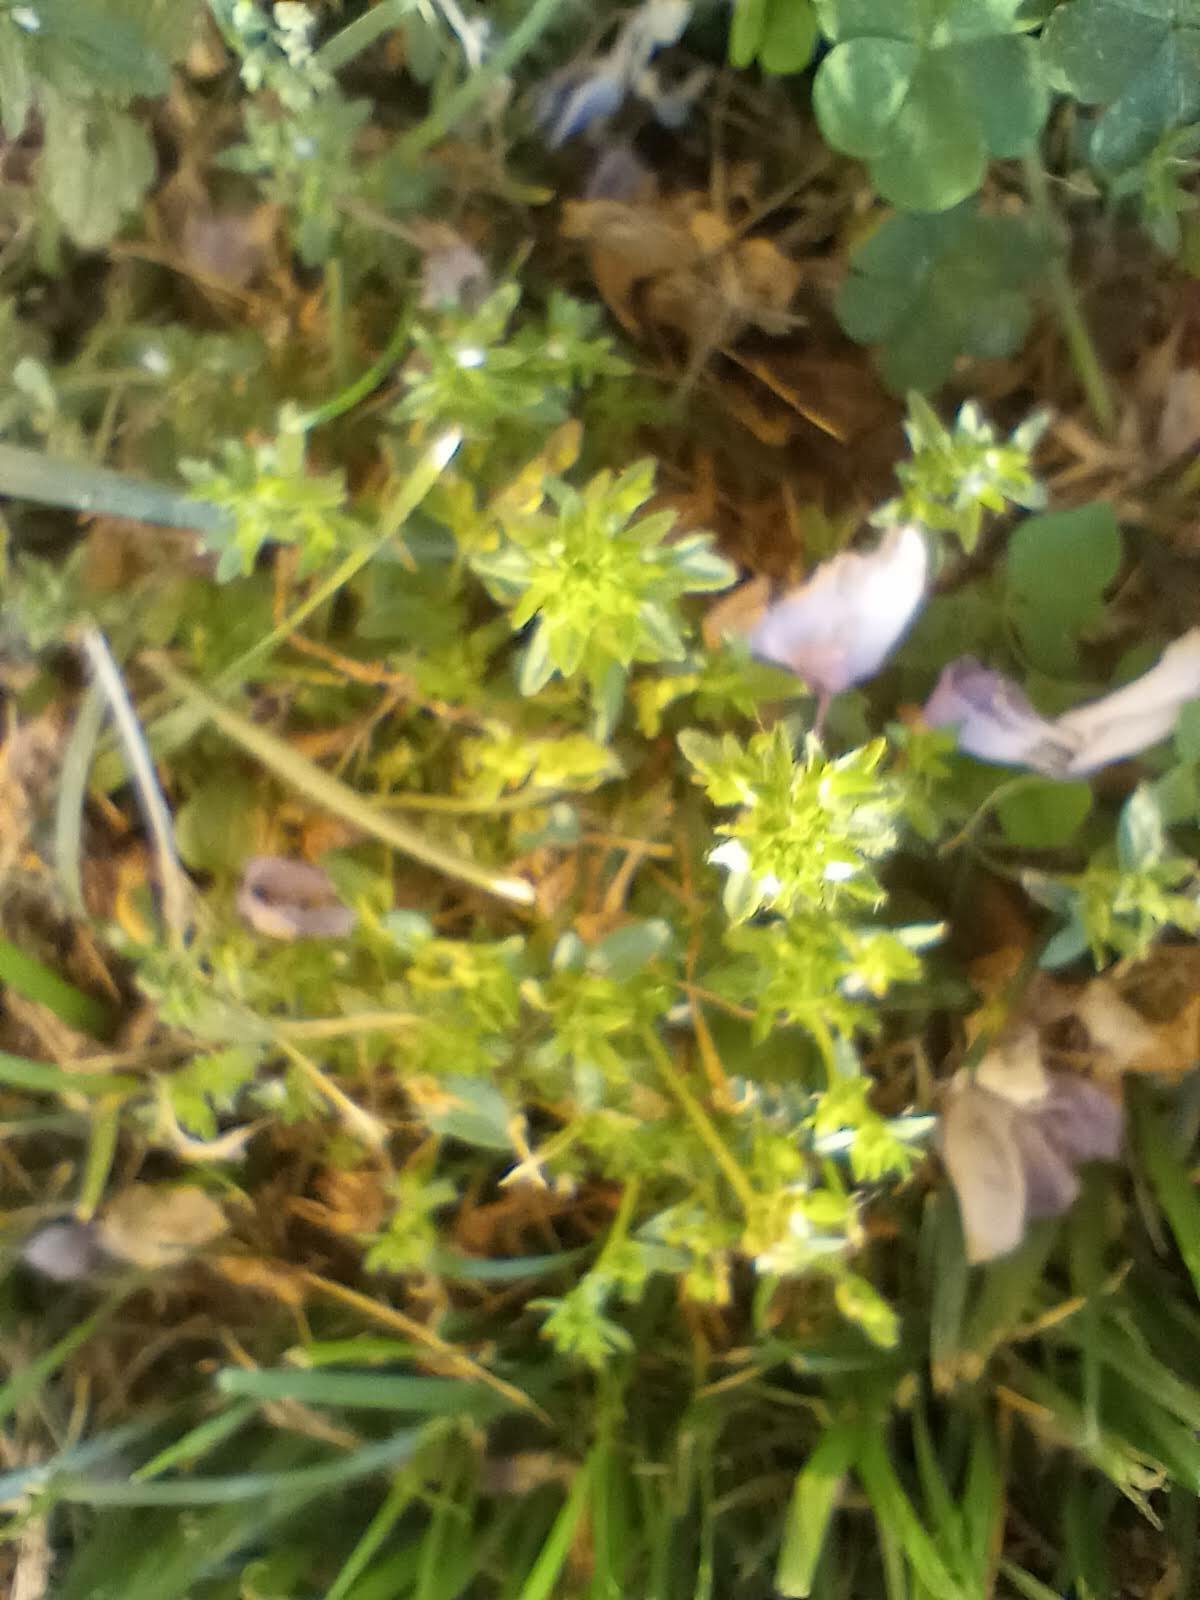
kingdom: Plantae
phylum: Tracheophyta
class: Magnoliopsida
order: Lamiales
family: Plantaginaceae
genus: Veronica
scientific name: Veronica arvensis
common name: Corn speedwell
